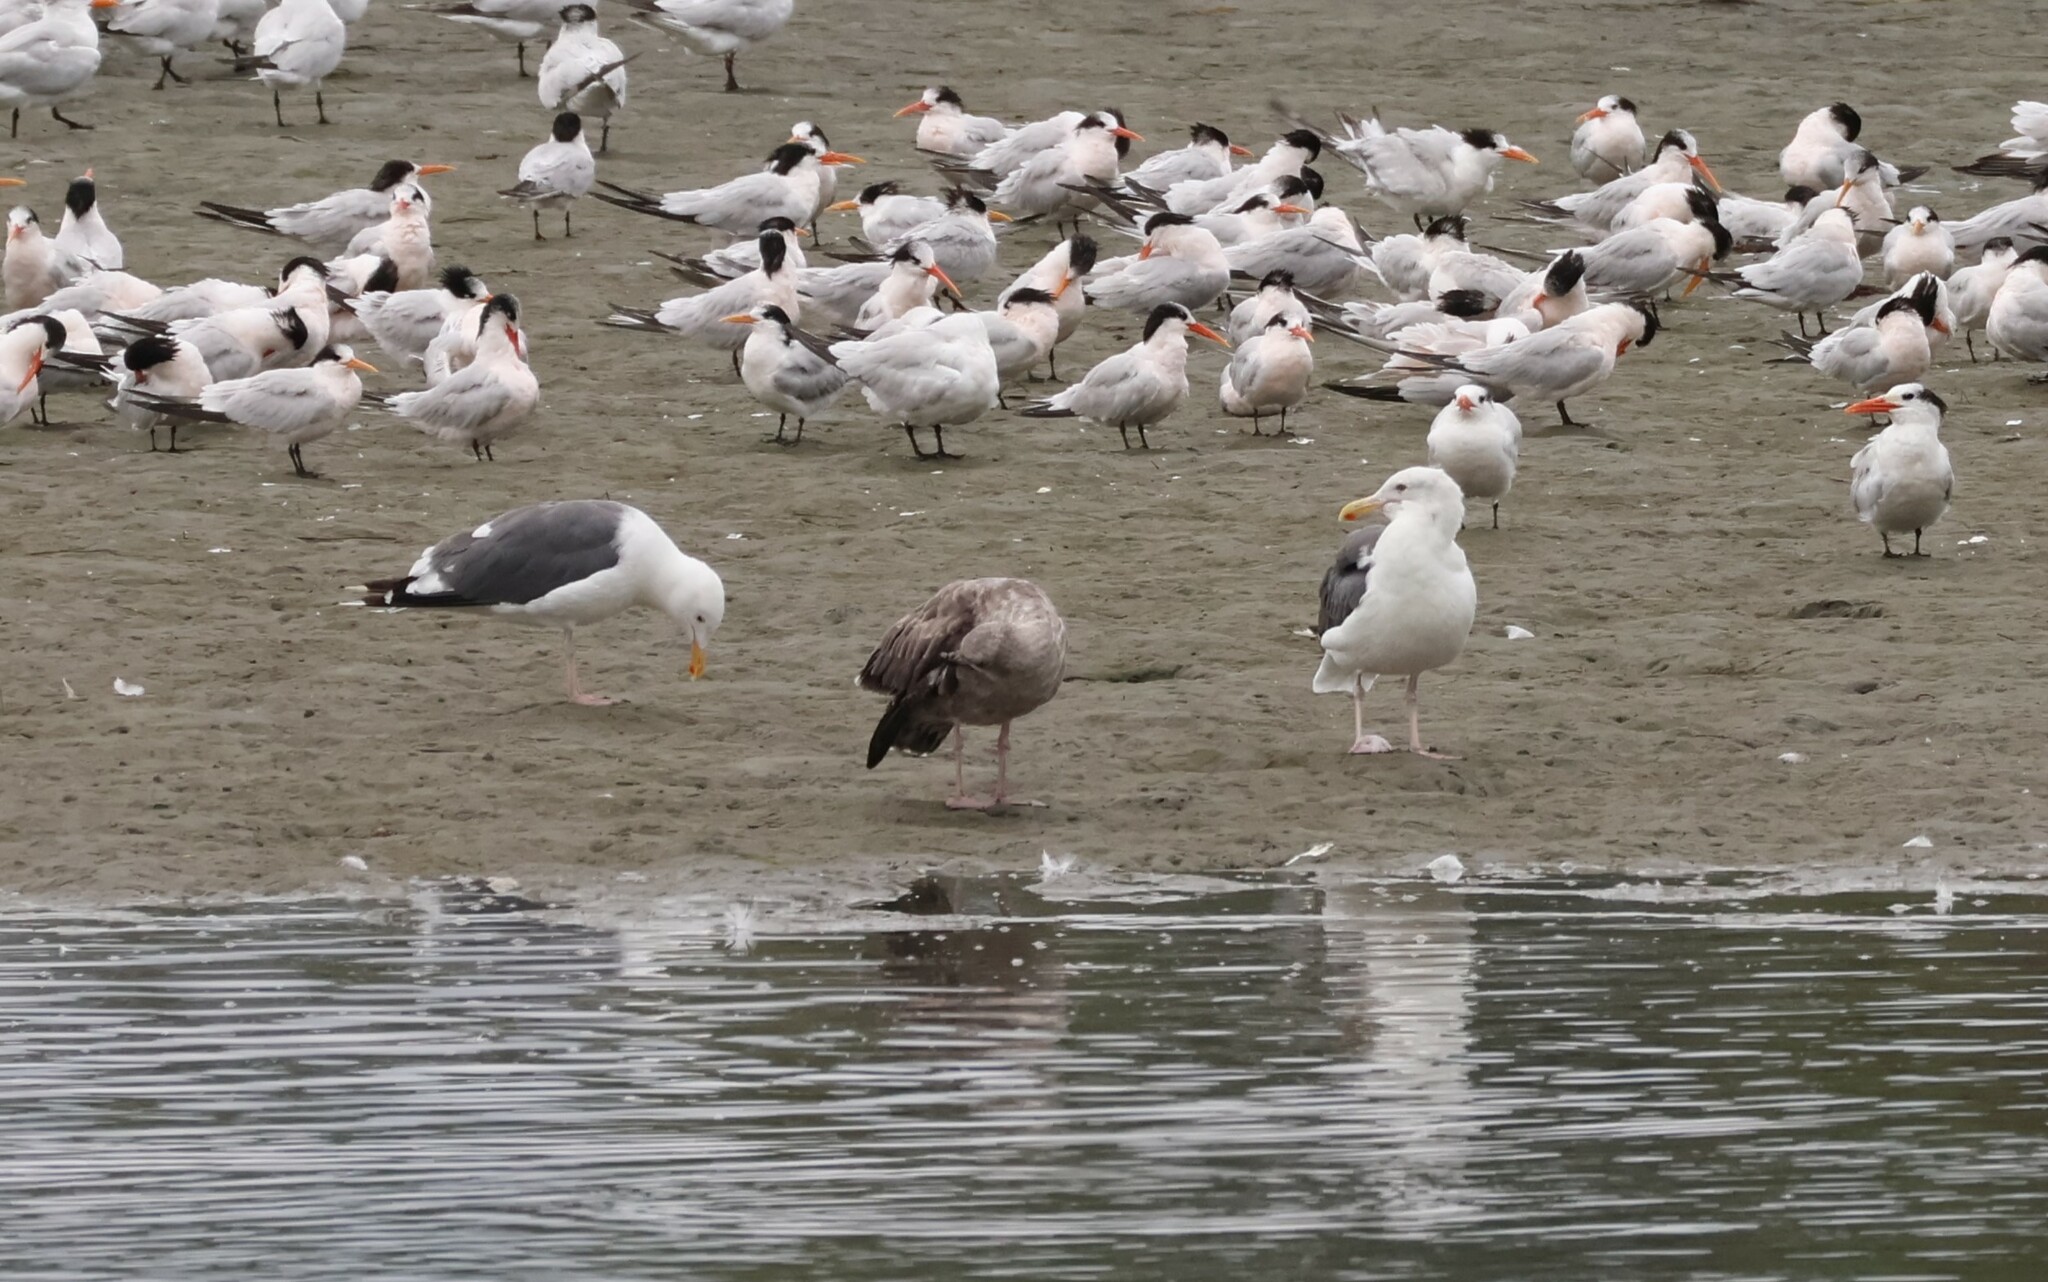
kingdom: Animalia
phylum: Chordata
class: Aves
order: Charadriiformes
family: Laridae
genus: Larus
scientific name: Larus occidentalis
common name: Western gull
